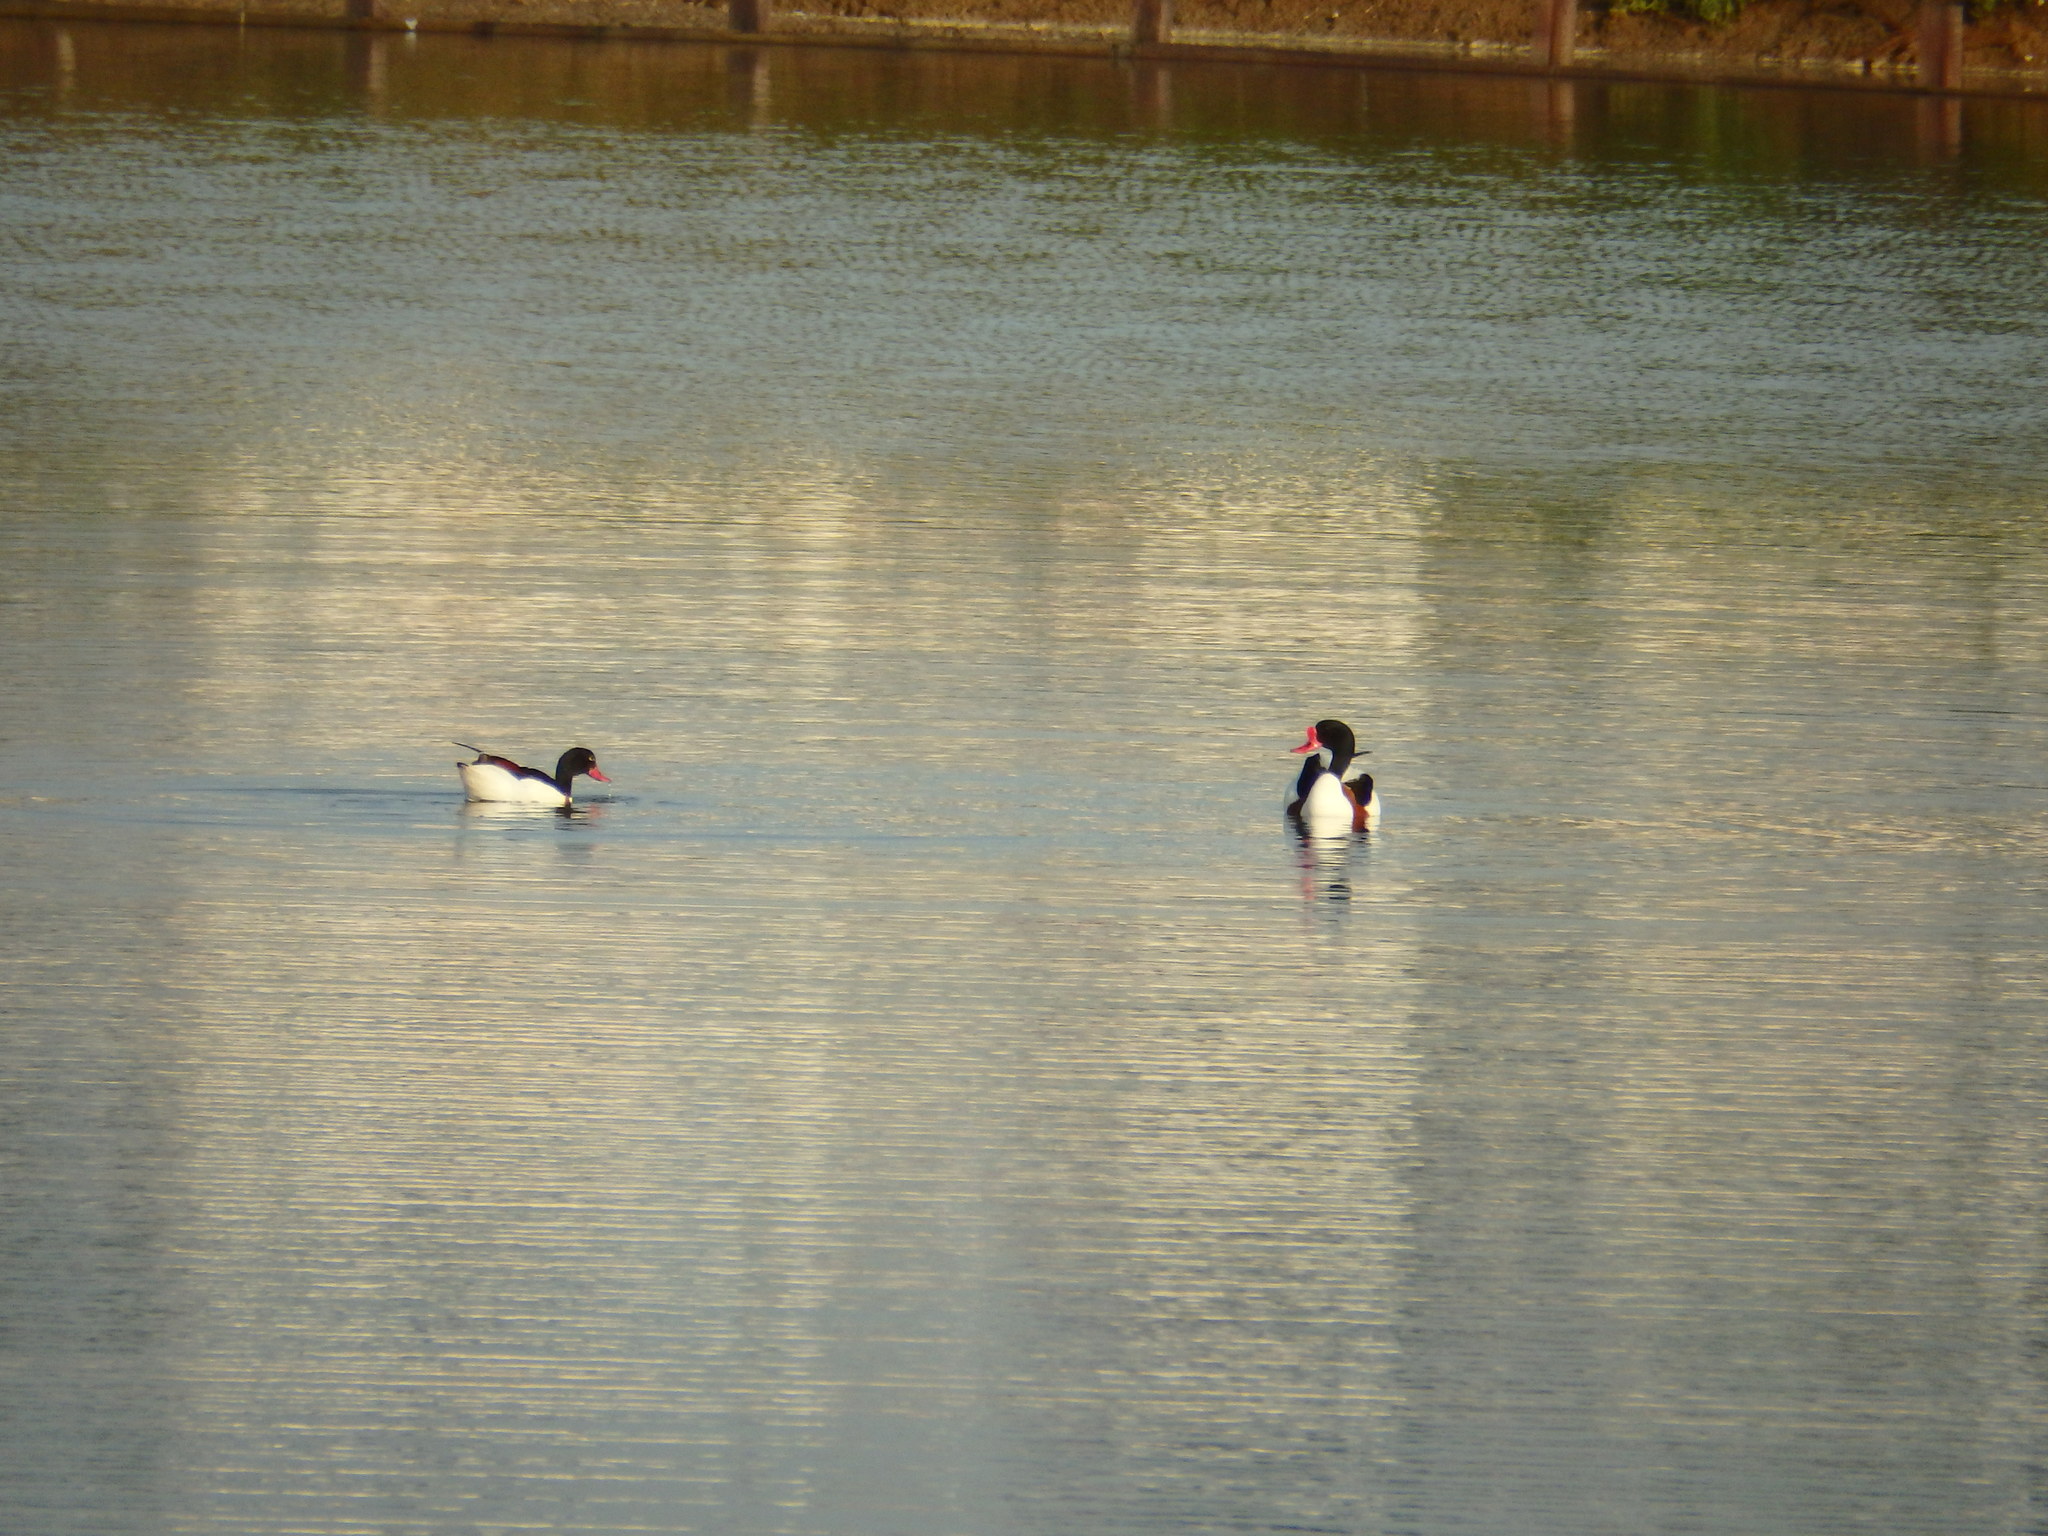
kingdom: Animalia
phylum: Chordata
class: Aves
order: Anseriformes
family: Anatidae
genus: Tadorna
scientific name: Tadorna tadorna
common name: Common shelduck
